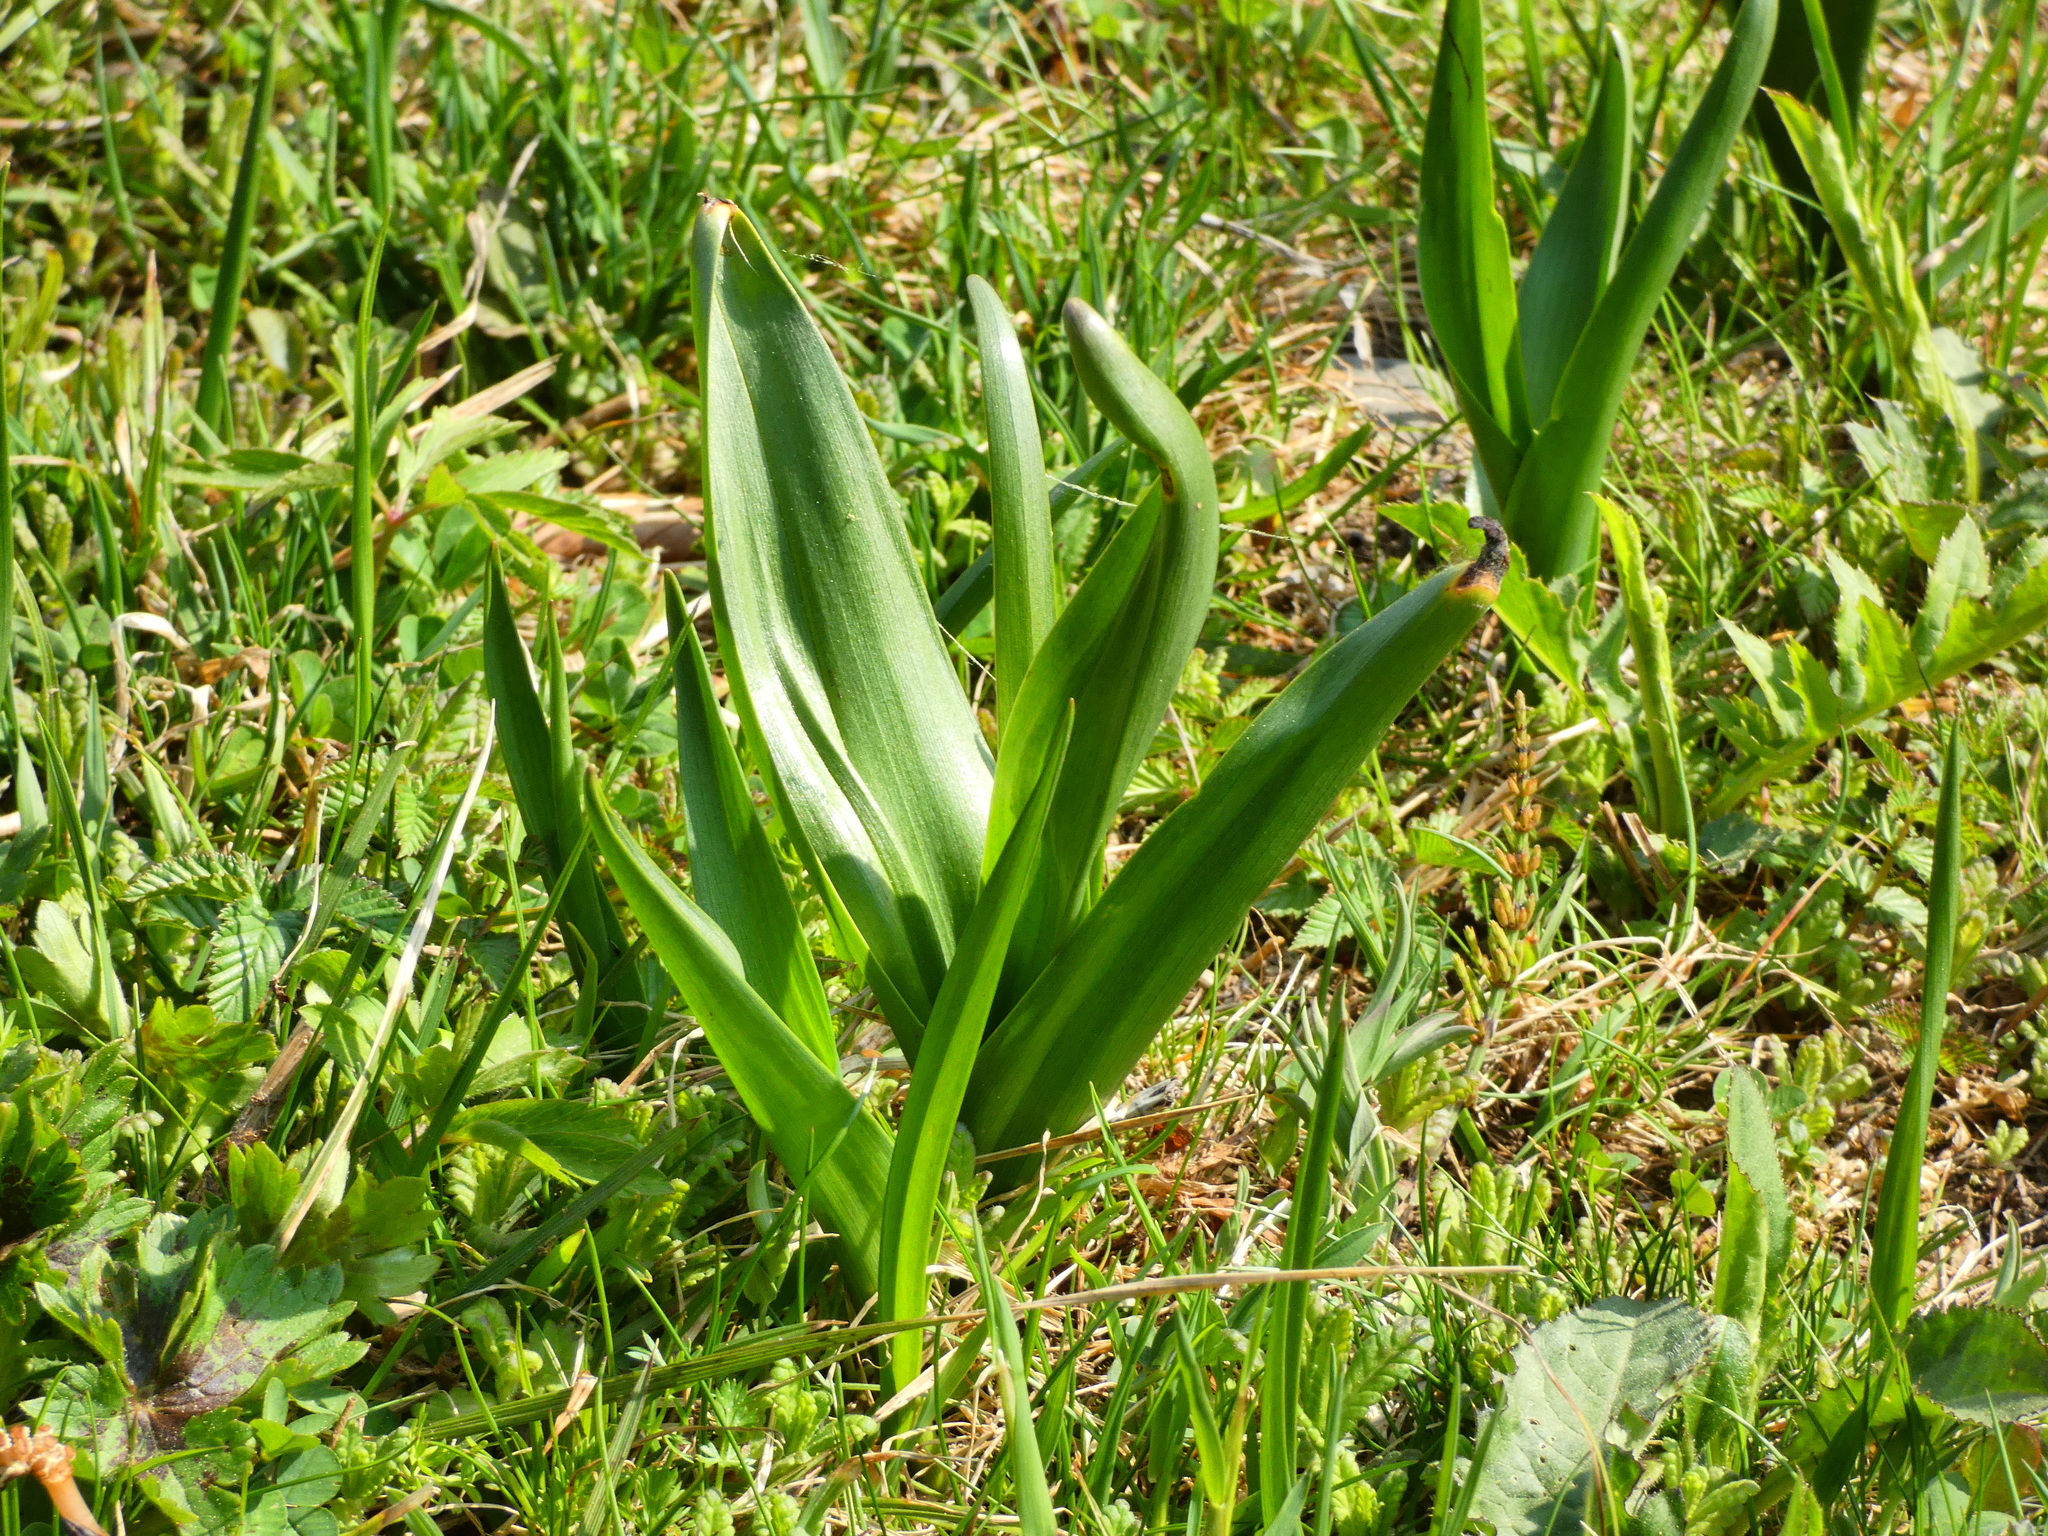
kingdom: Plantae
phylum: Tracheophyta
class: Liliopsida
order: Liliales
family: Colchicaceae
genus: Colchicum
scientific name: Colchicum autumnale
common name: Autumn crocus
